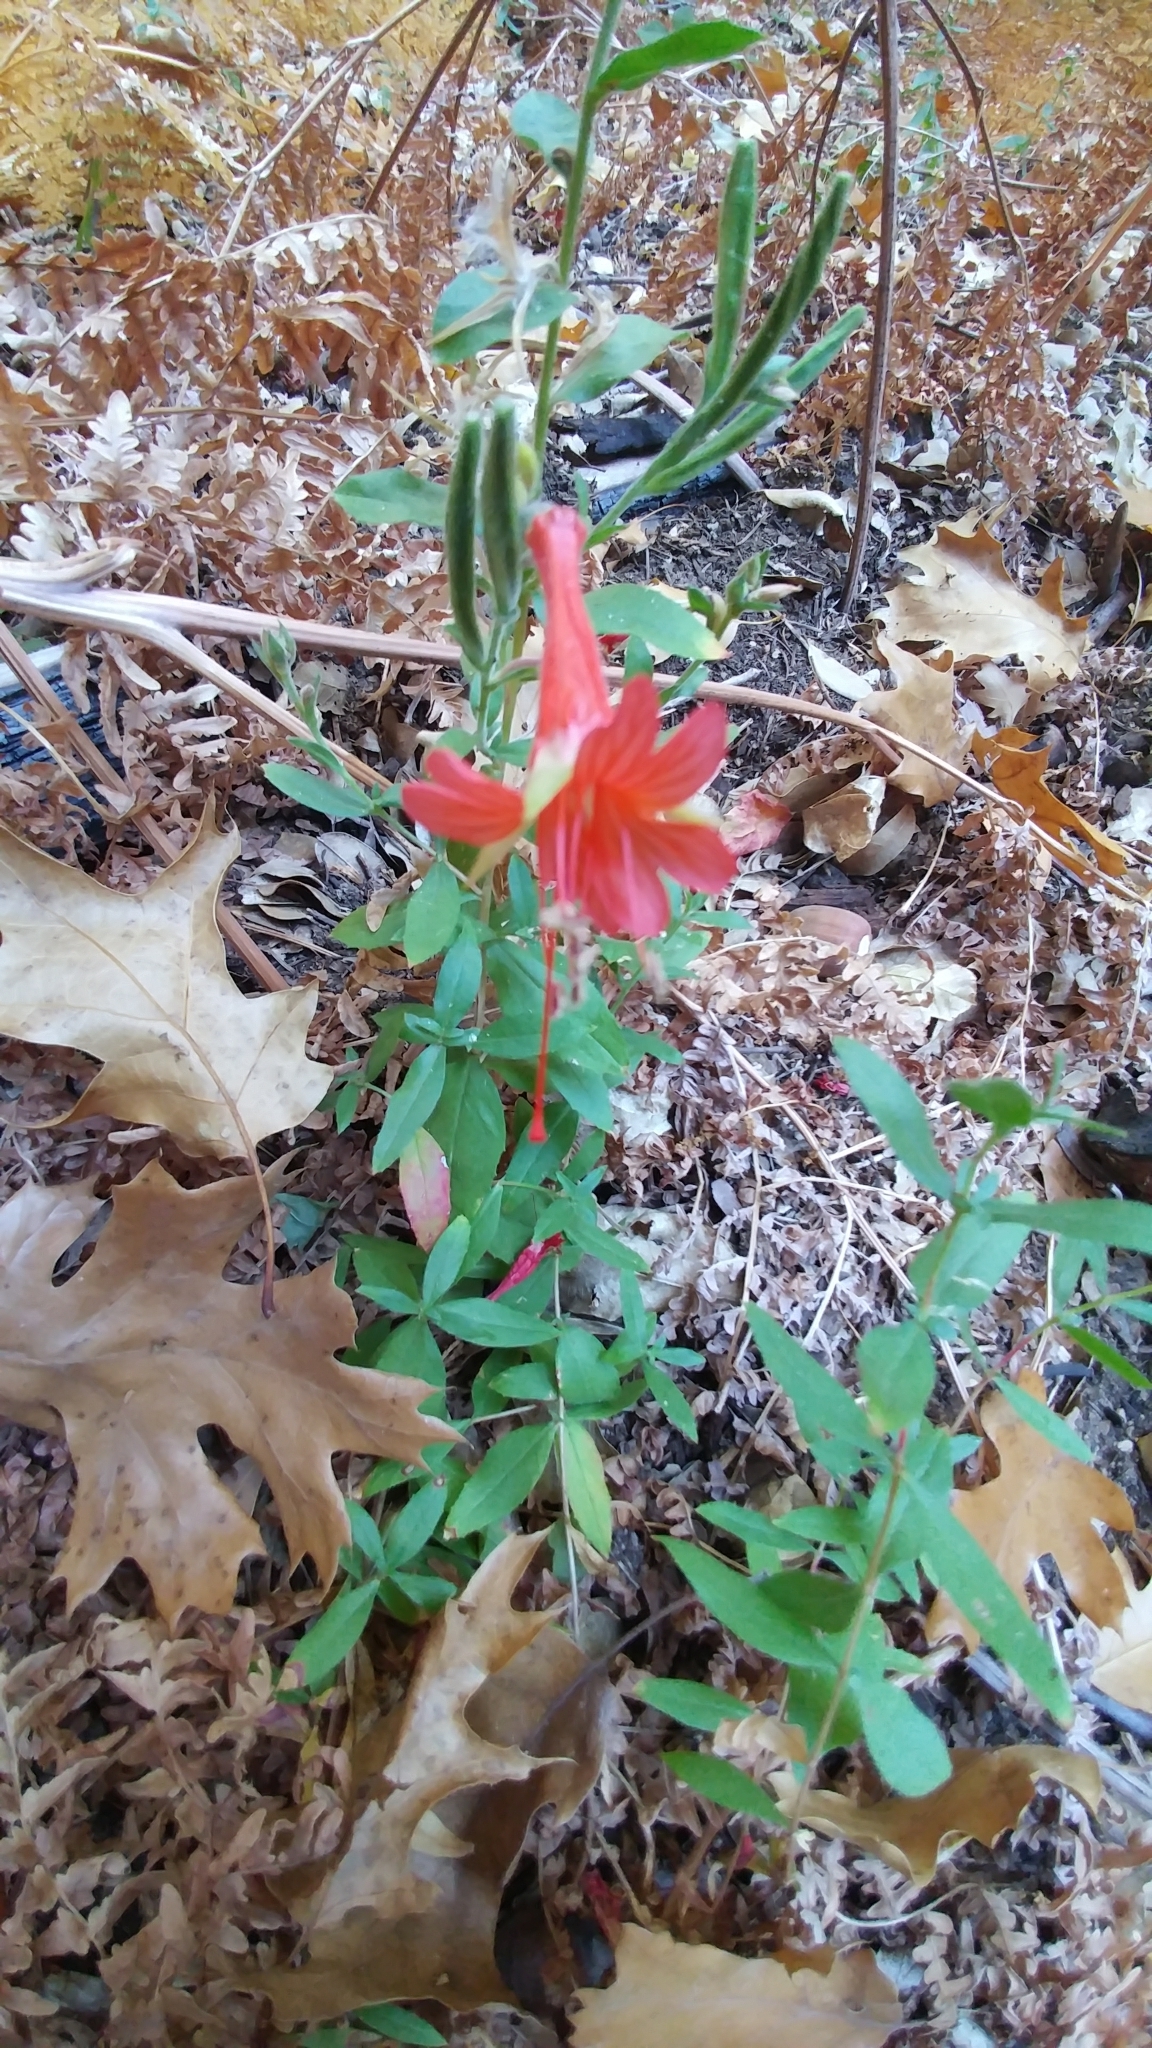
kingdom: Plantae
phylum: Tracheophyta
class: Magnoliopsida
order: Myrtales
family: Onagraceae
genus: Epilobium
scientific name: Epilobium canum
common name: California-fuchsia
